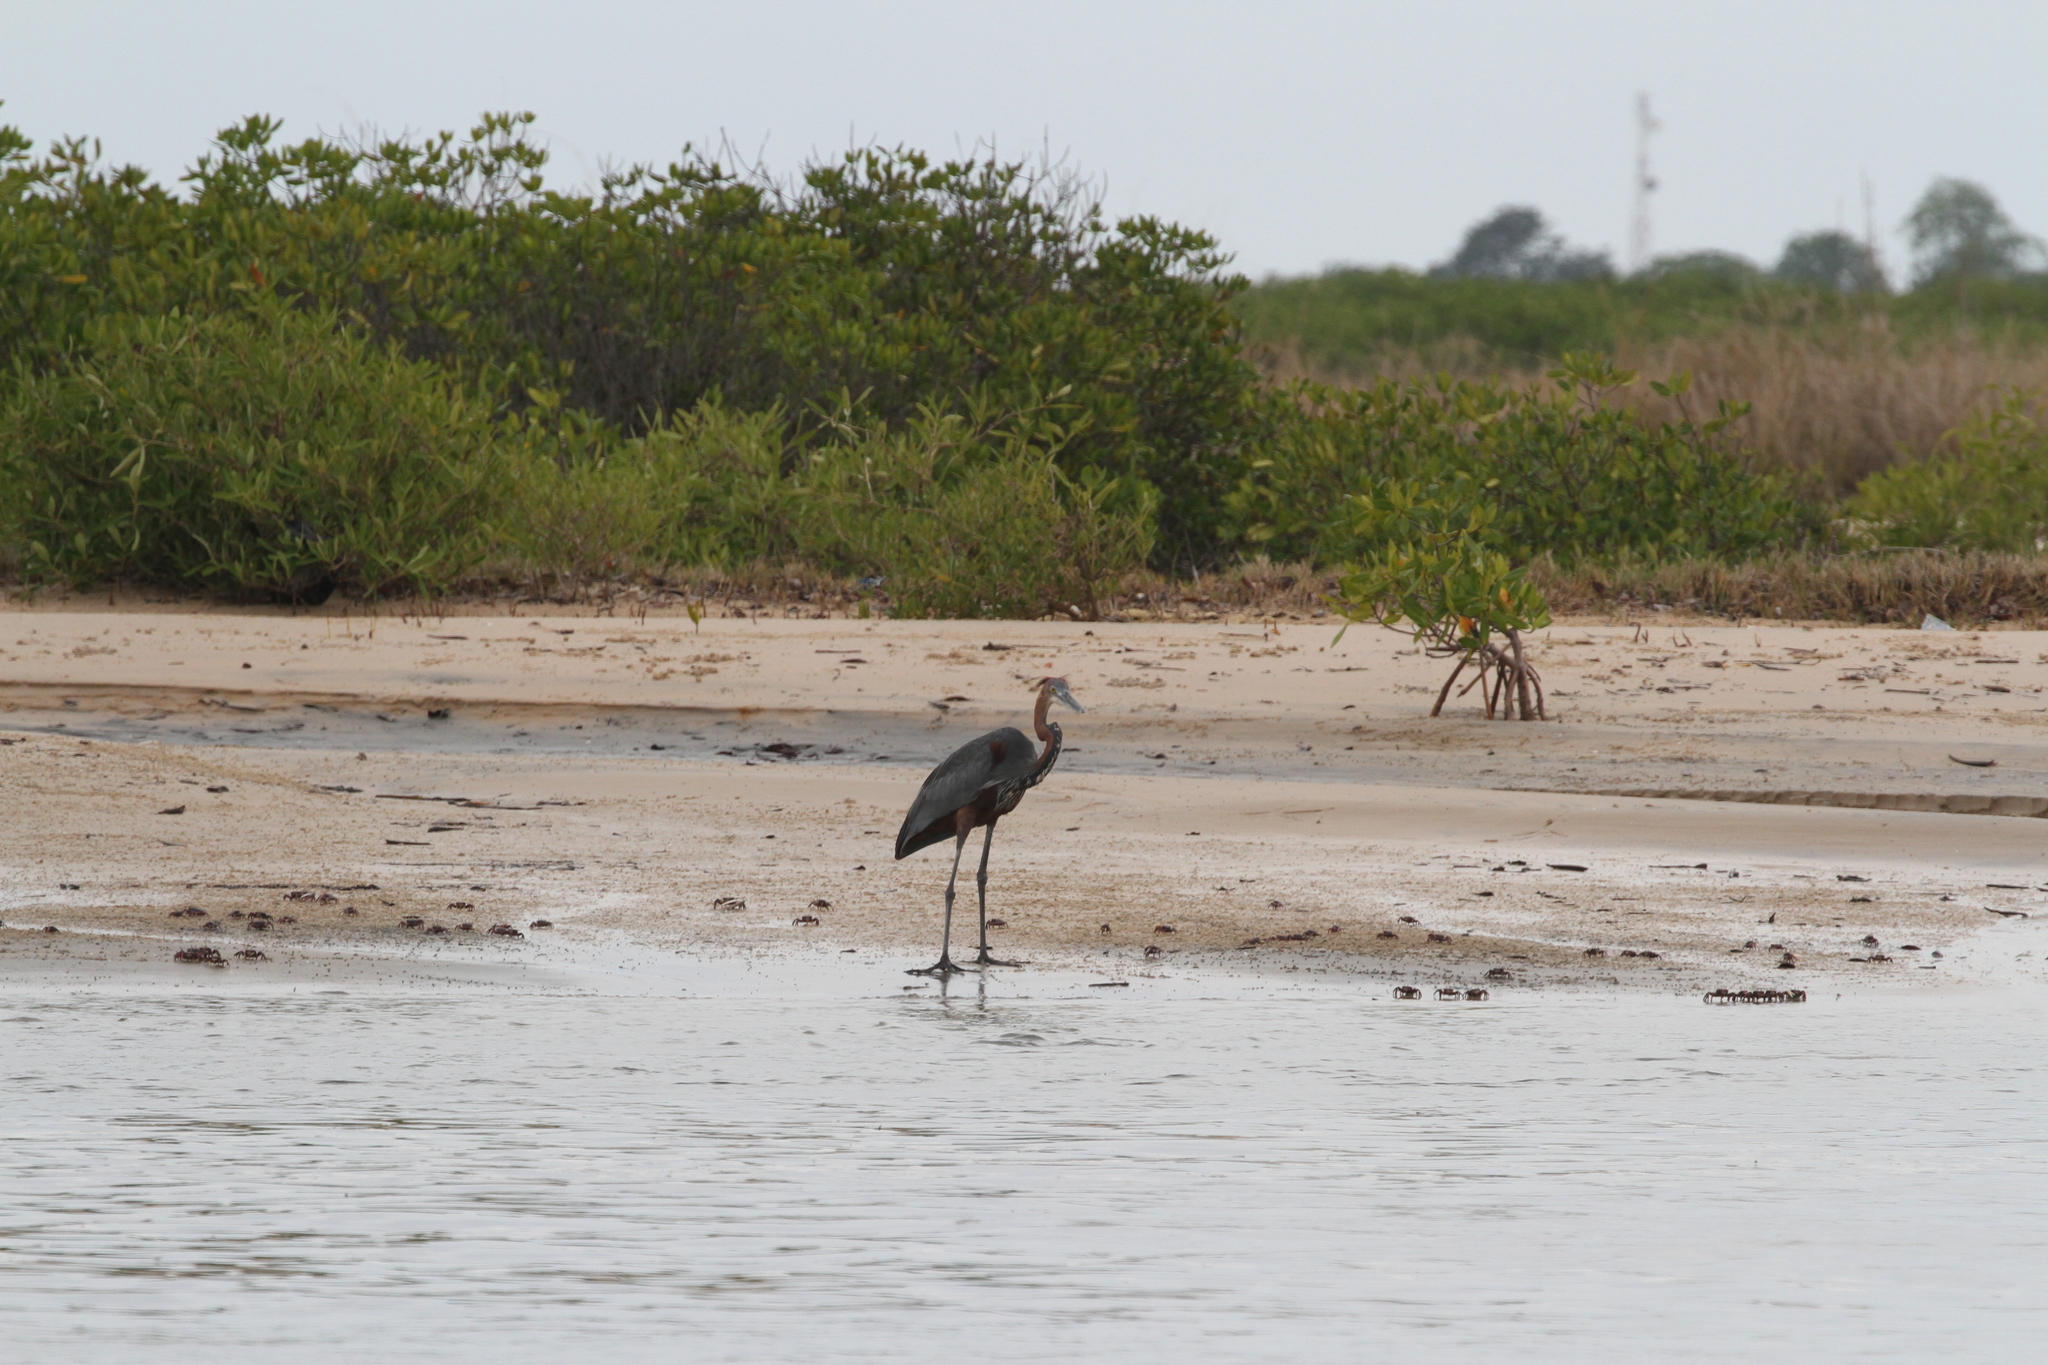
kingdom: Animalia
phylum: Chordata
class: Aves
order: Pelecaniformes
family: Ardeidae
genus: Ardea
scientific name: Ardea goliath
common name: Goliath heron
